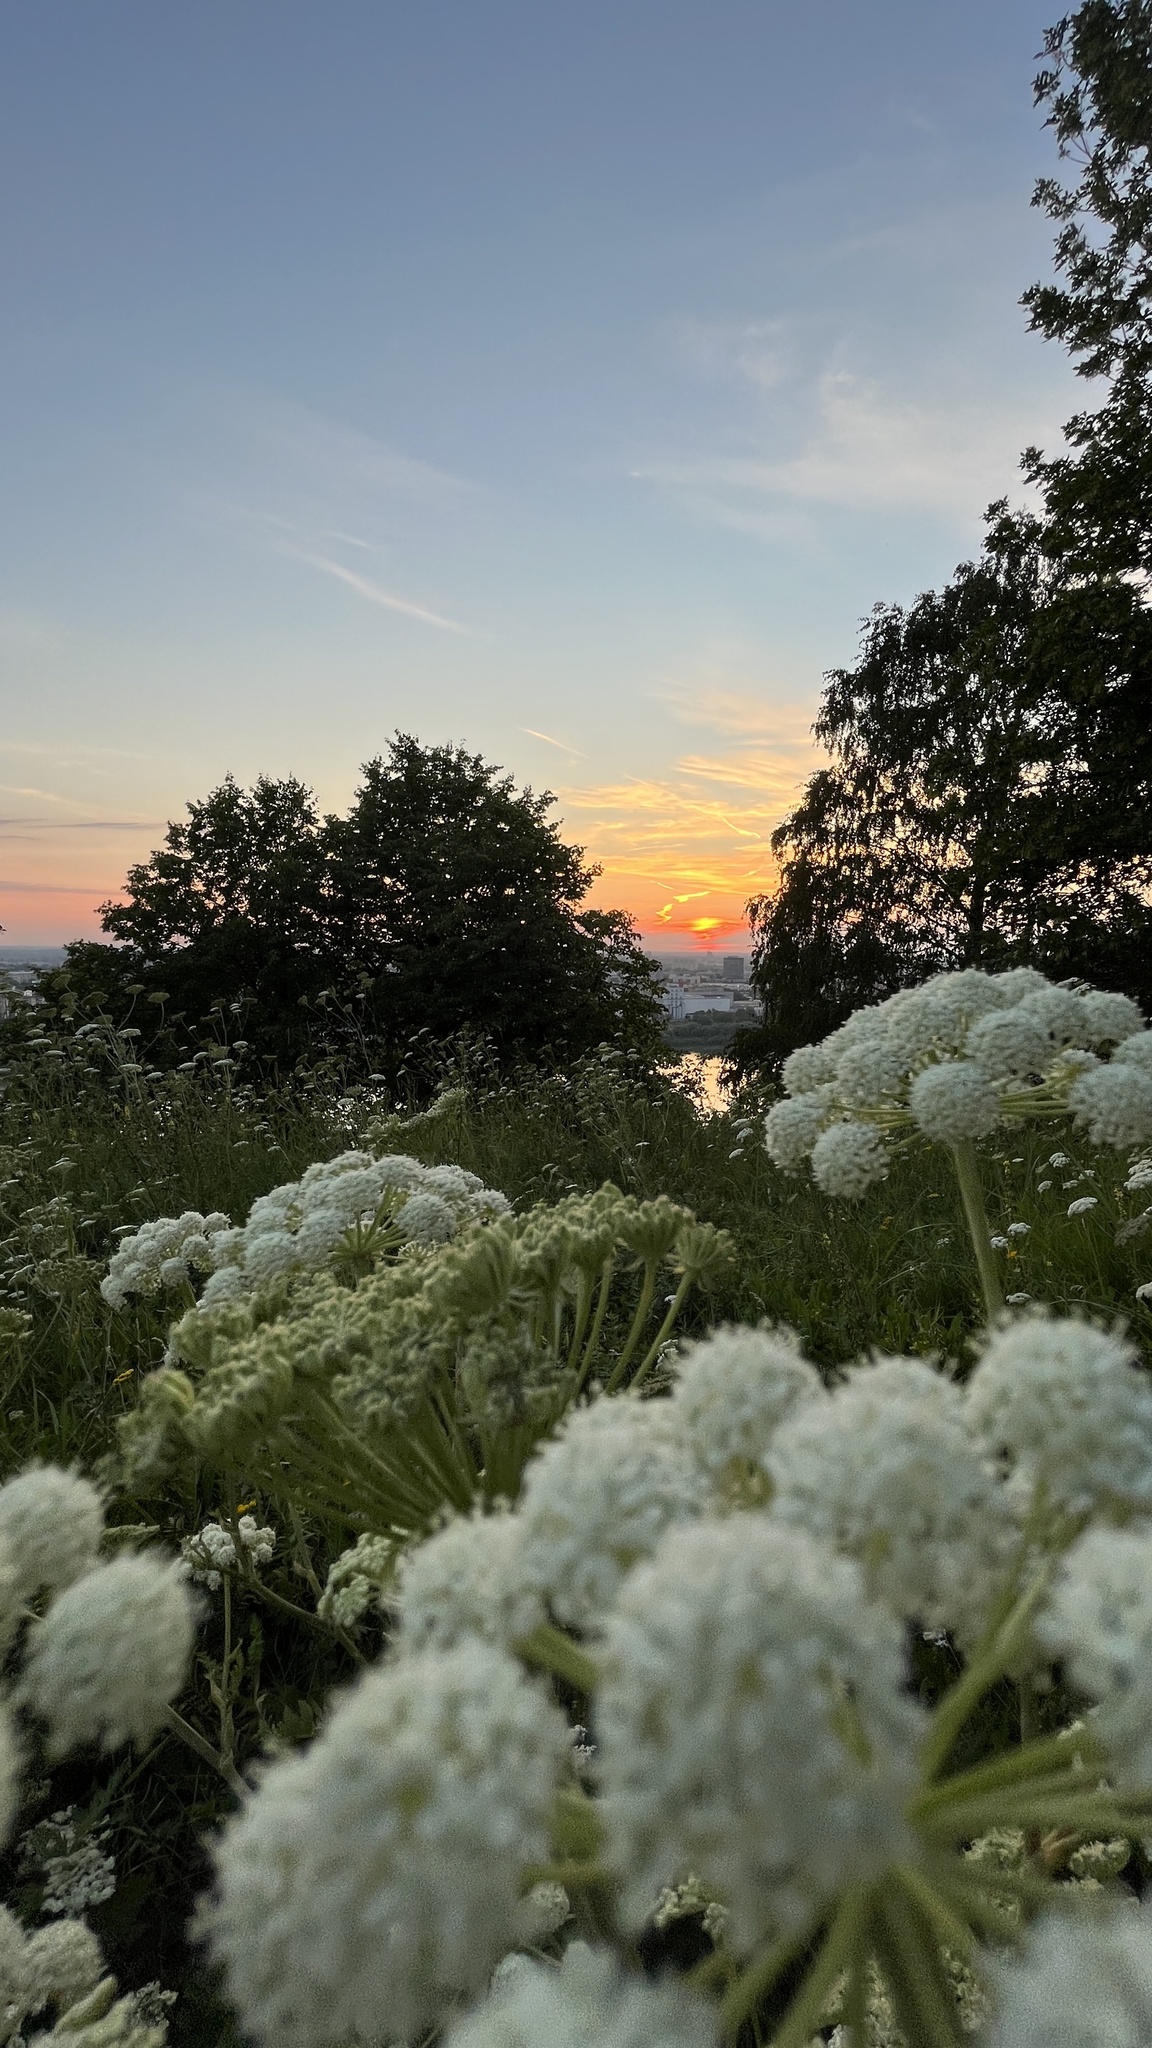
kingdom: Plantae
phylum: Tracheophyta
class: Magnoliopsida
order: Apiales
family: Apiaceae
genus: Seseli
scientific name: Seseli libanotis
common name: Mooncarrot
